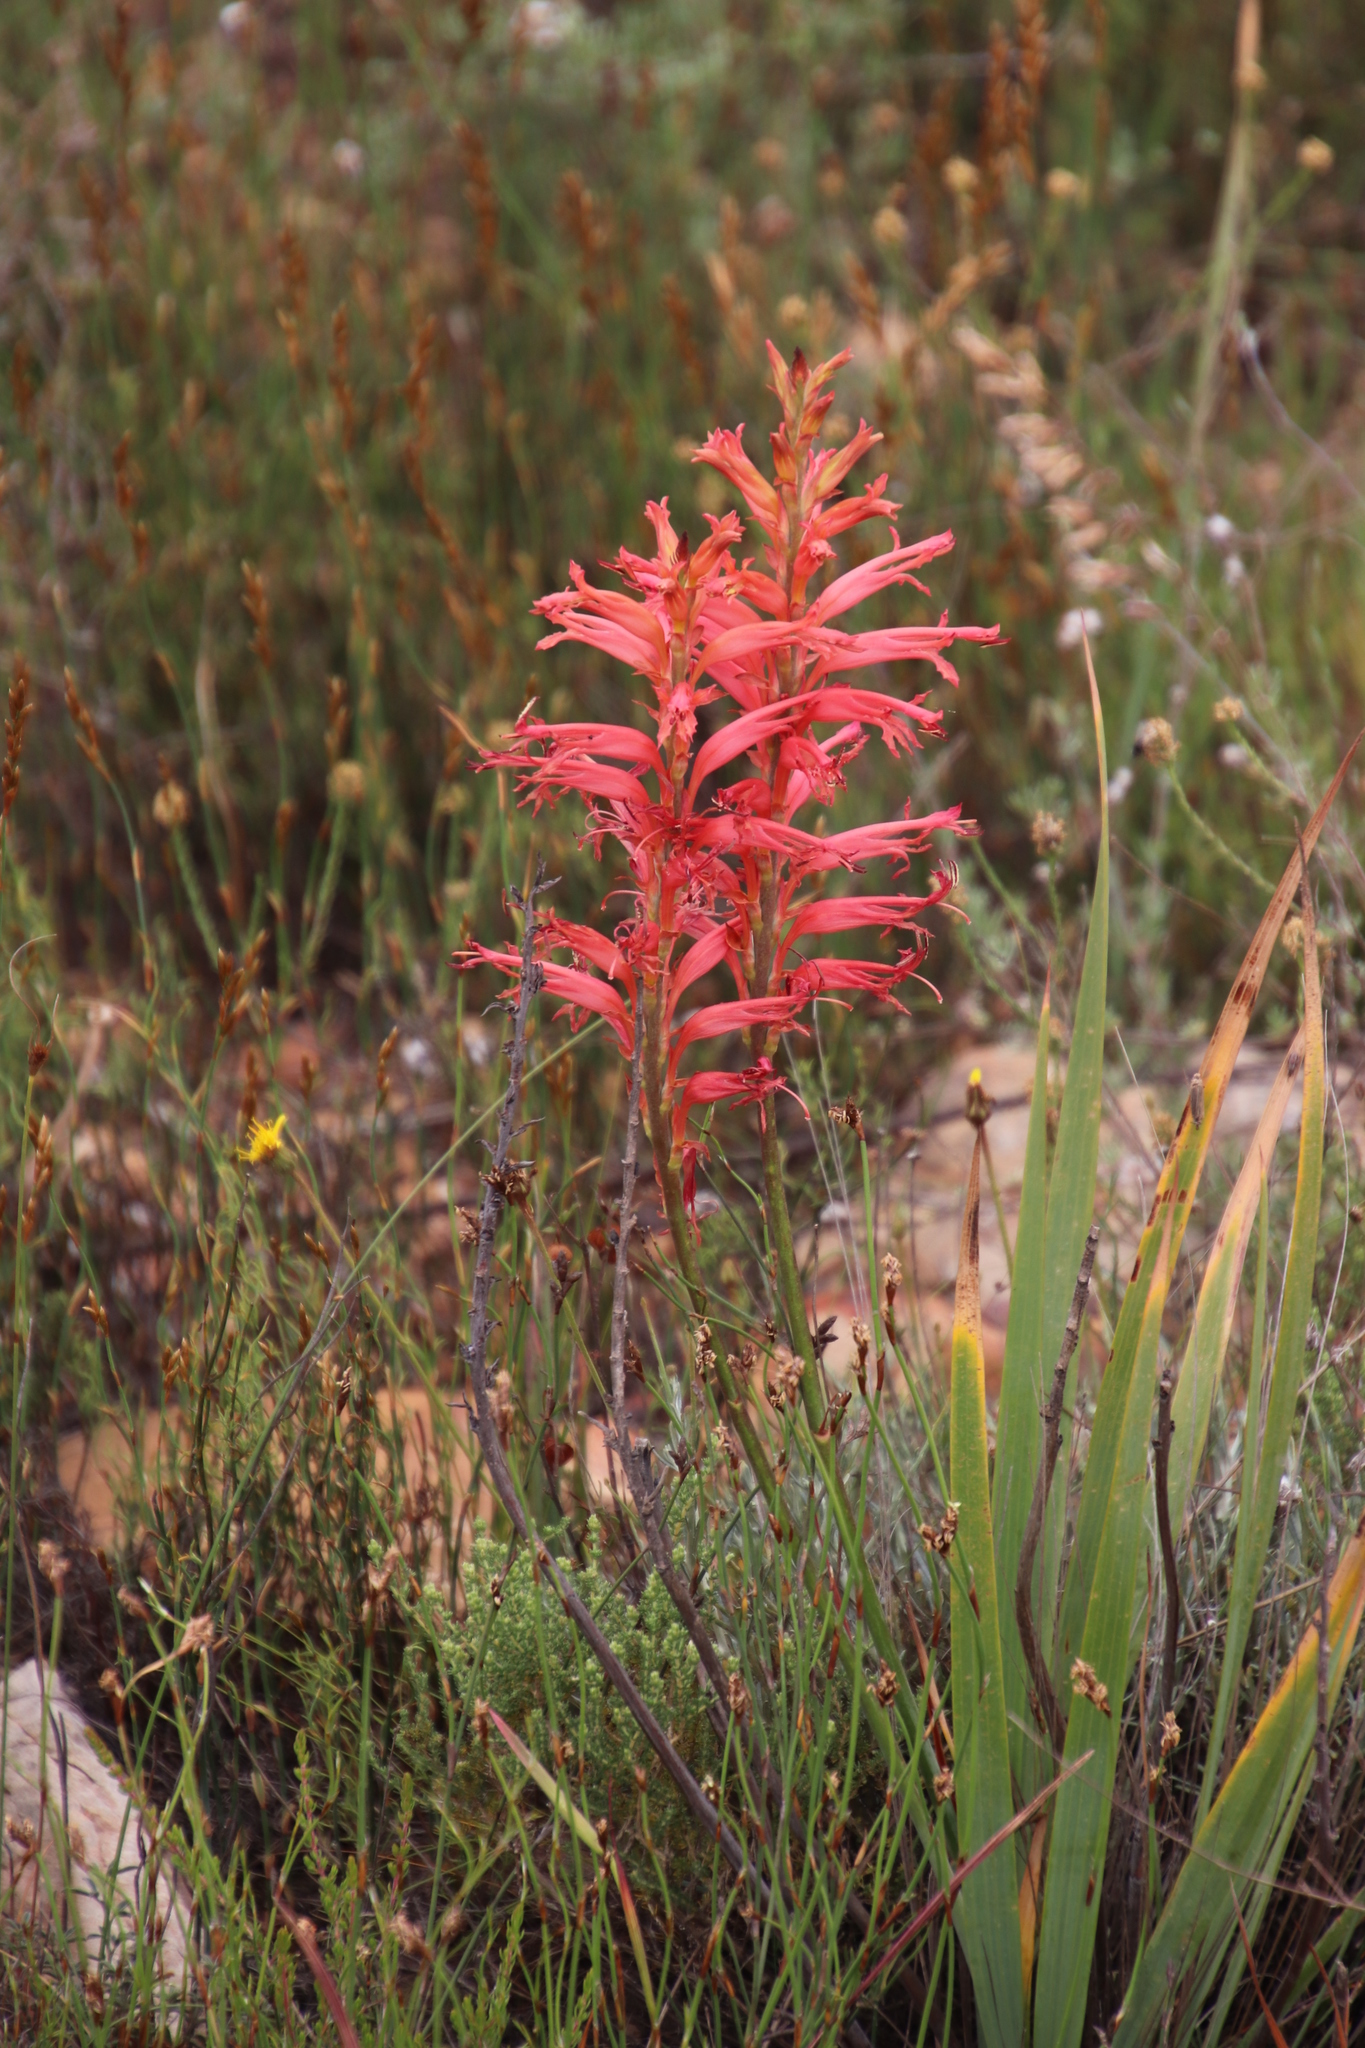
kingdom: Plantae
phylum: Tracheophyta
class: Liliopsida
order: Asparagales
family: Iridaceae
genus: Tritoniopsis
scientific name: Tritoniopsis antholyza
